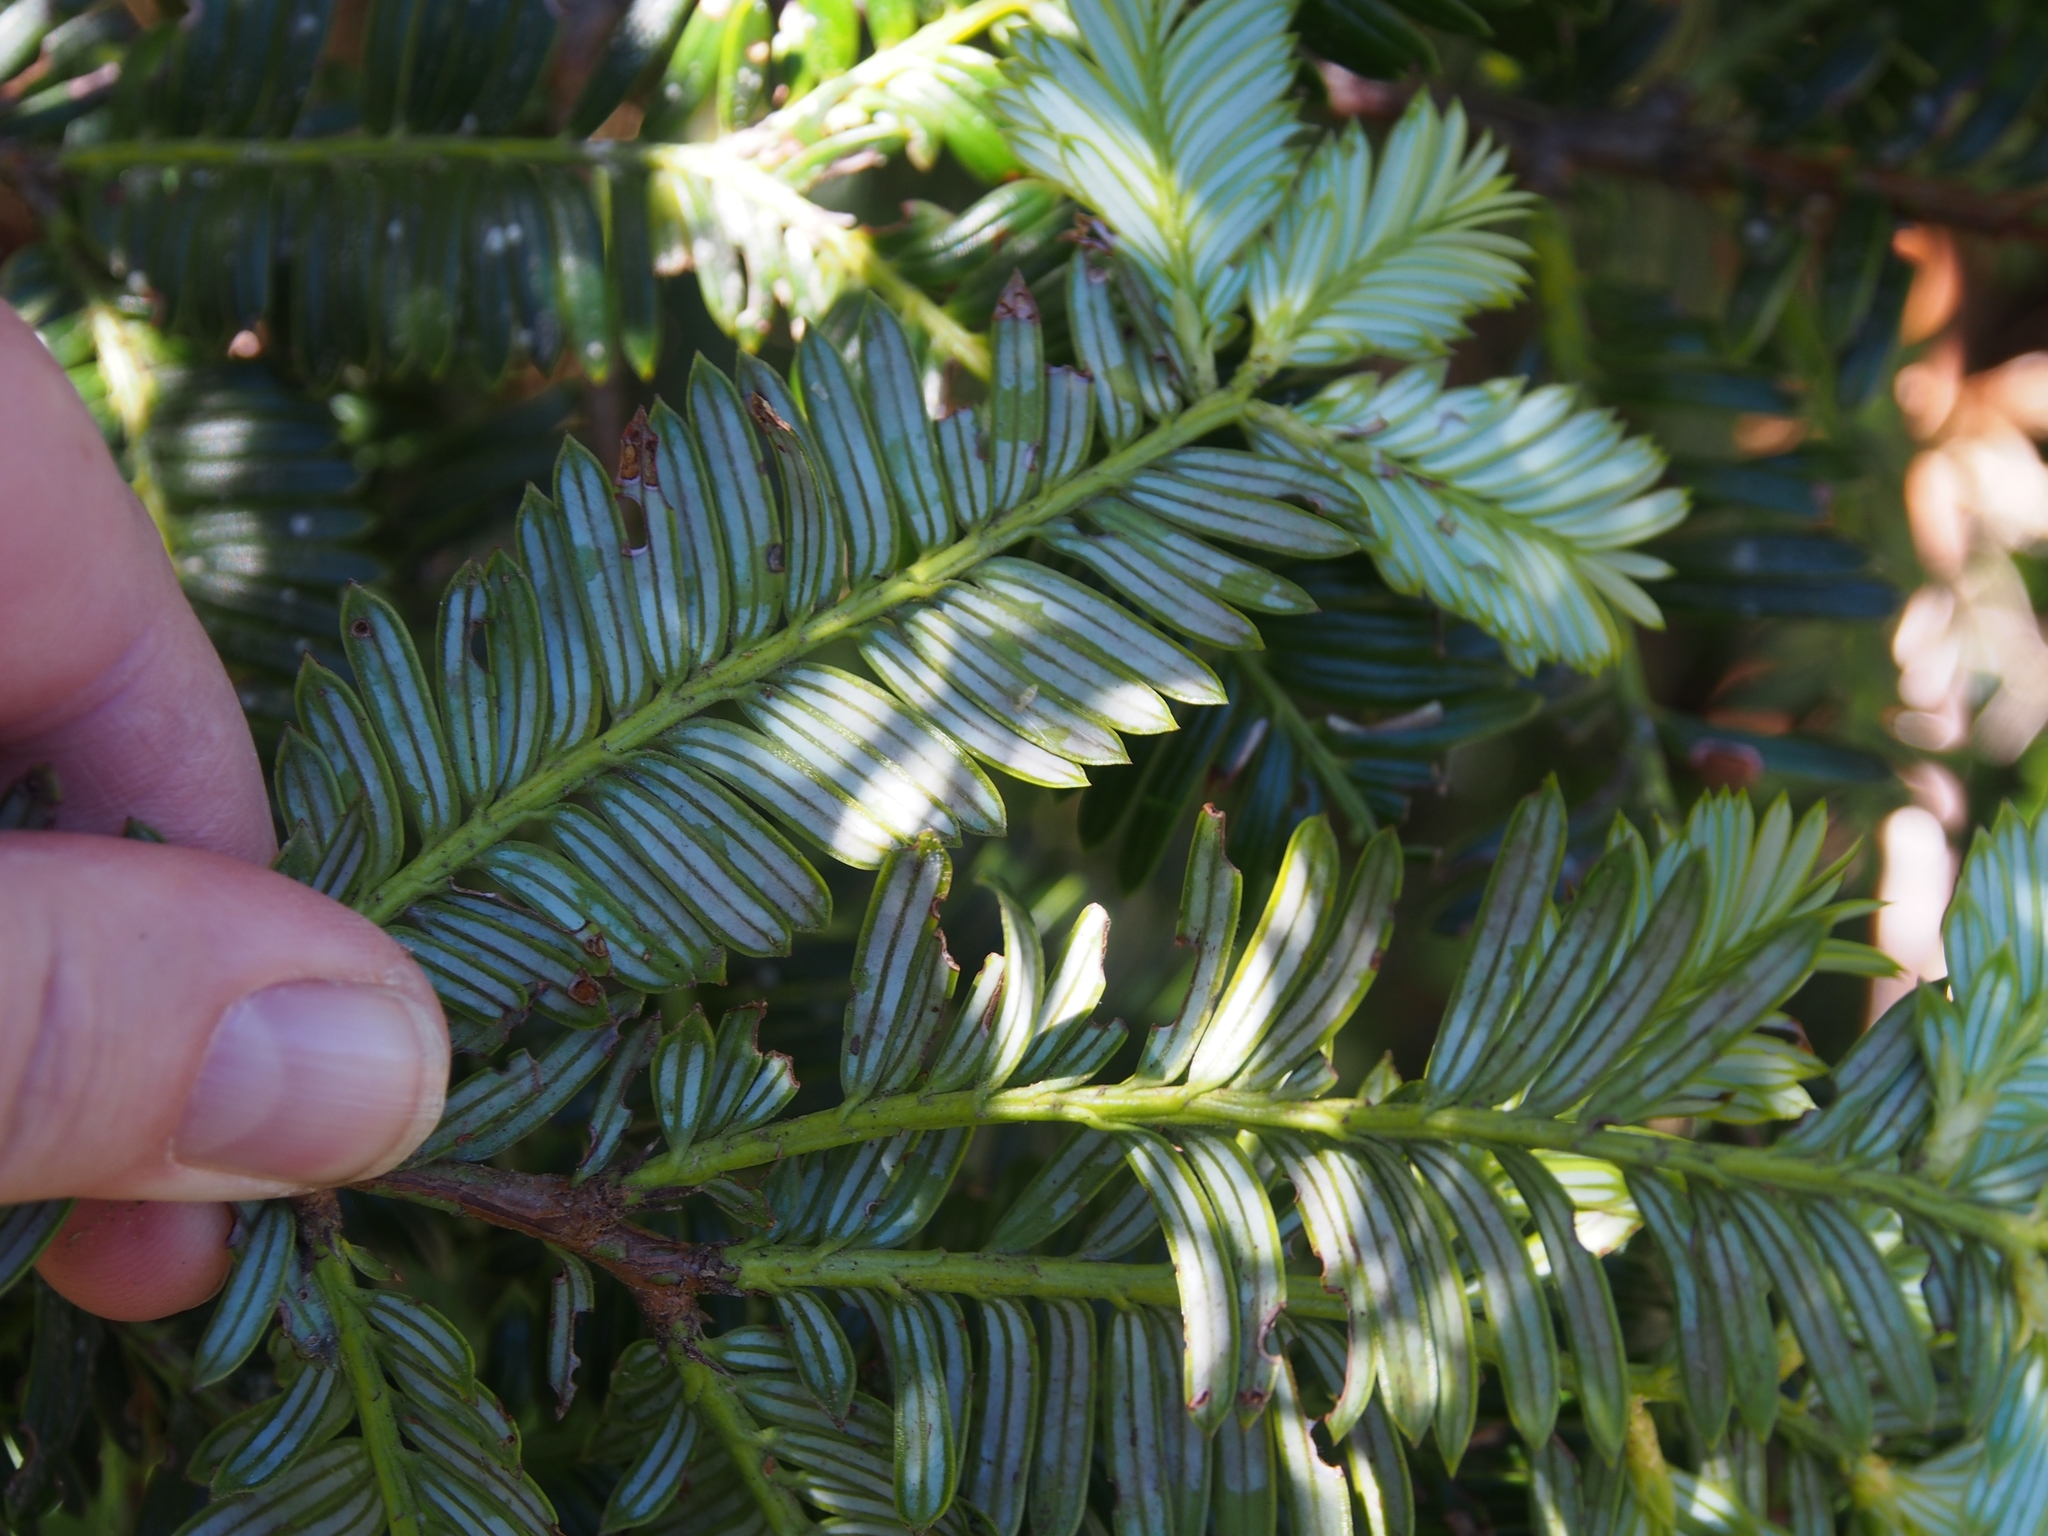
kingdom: Plantae
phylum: Tracheophyta
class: Pinopsida
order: Pinales
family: Podocarpaceae
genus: Prumnopitys
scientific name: Prumnopitys standleyi
